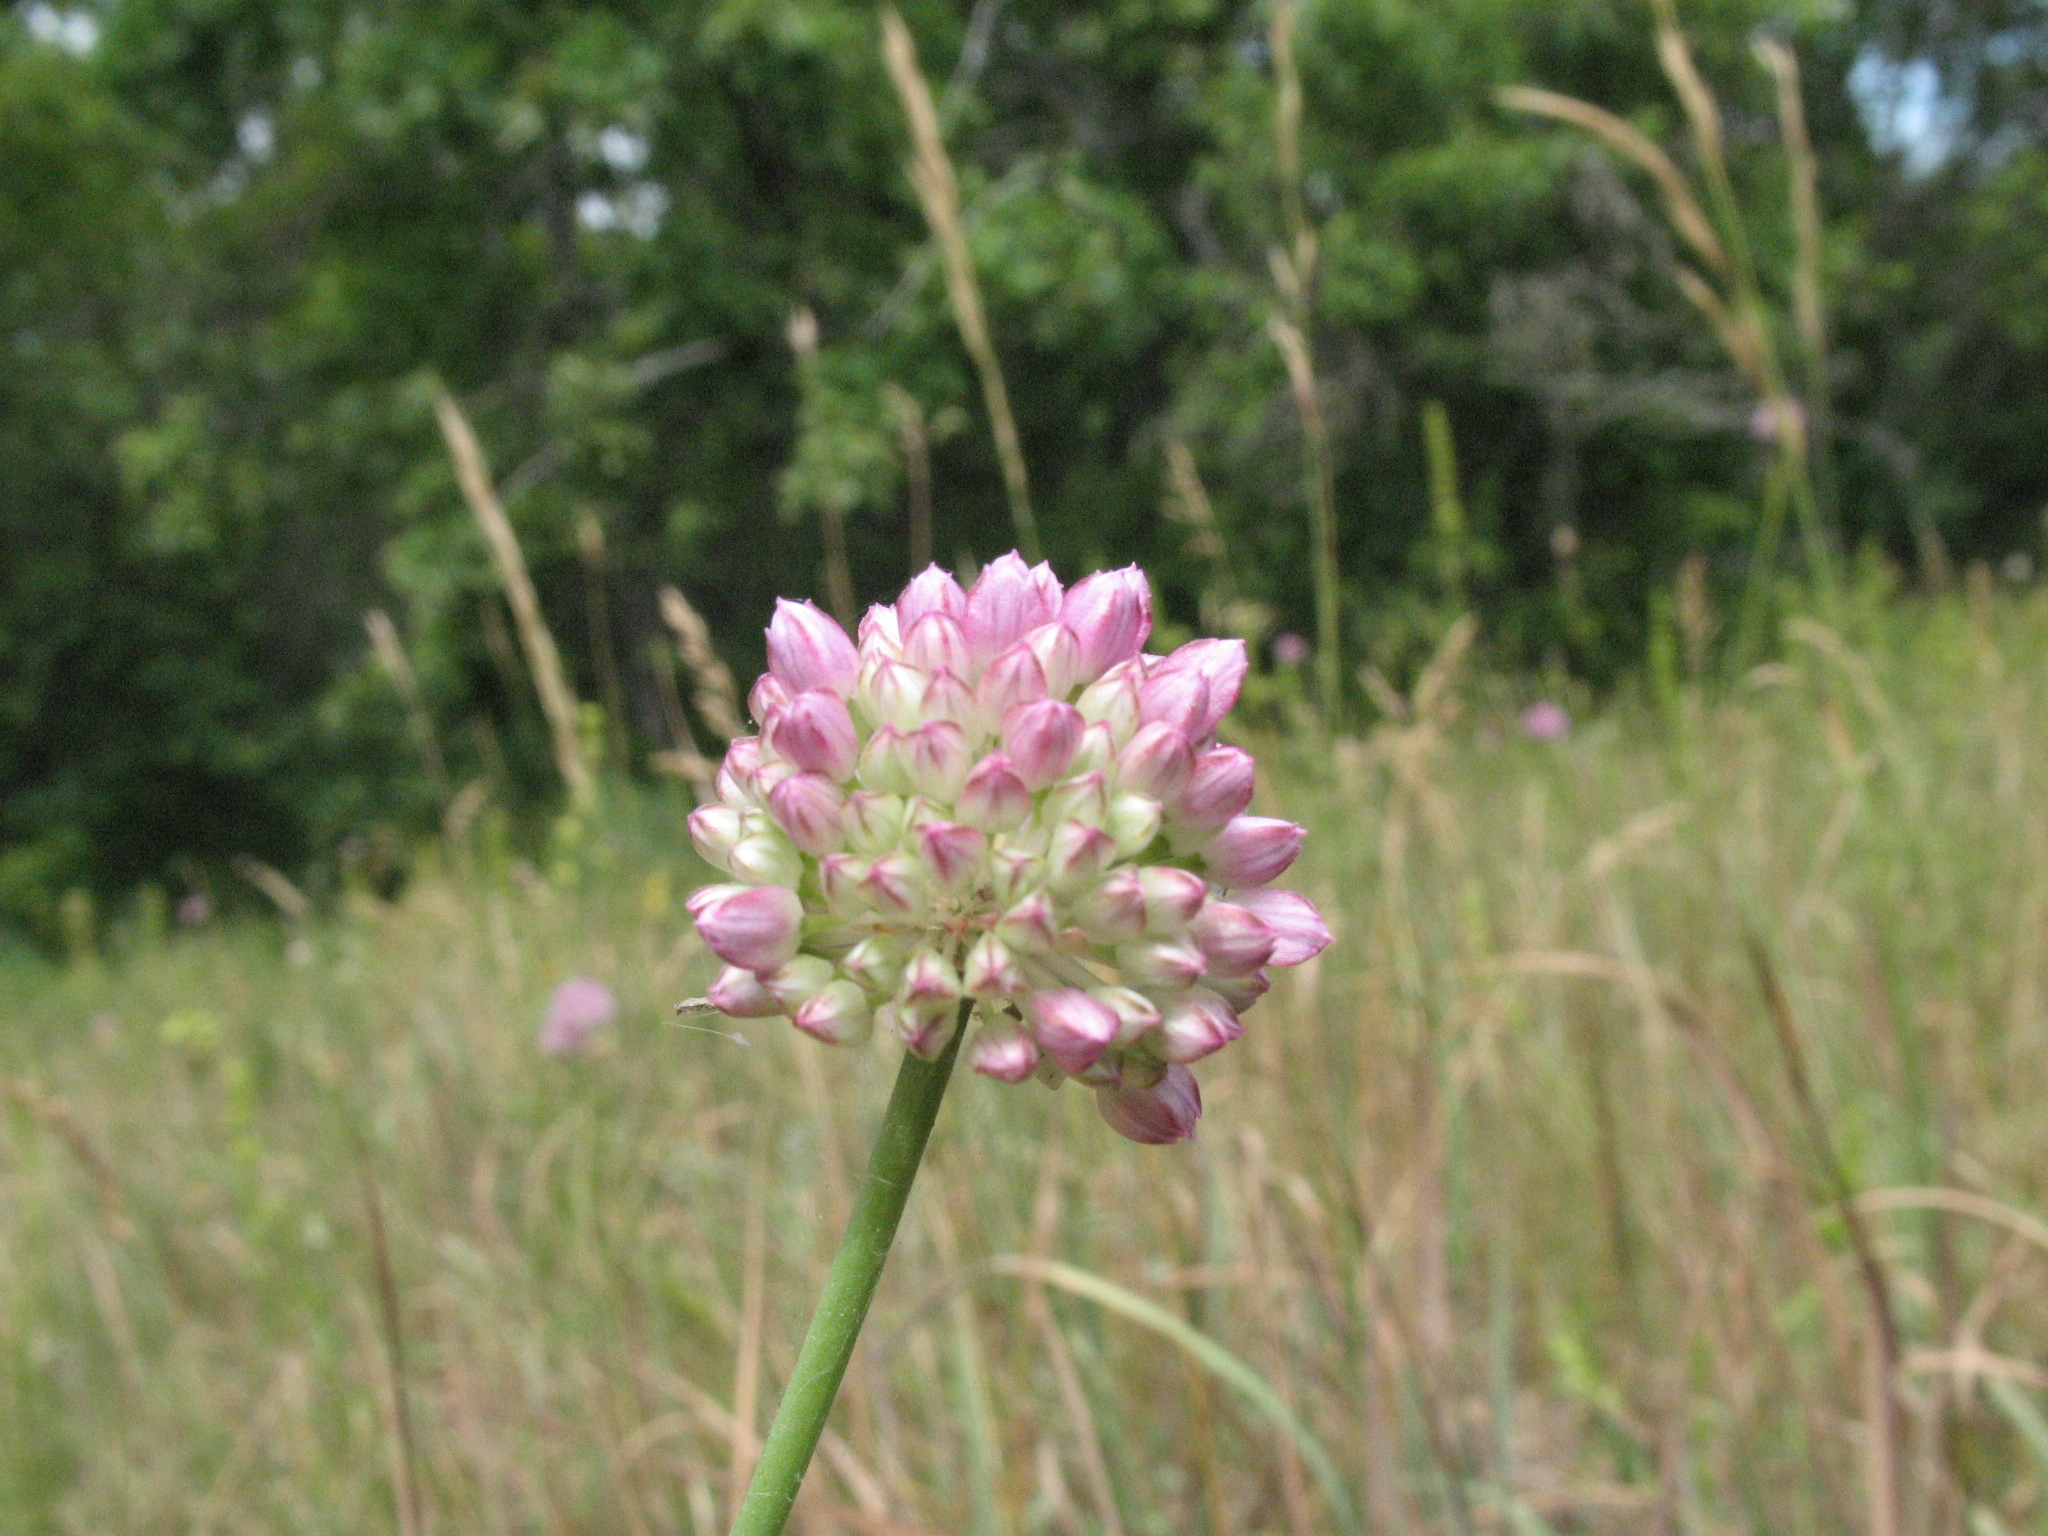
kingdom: Plantae
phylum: Tracheophyta
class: Liliopsida
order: Asparagales
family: Amaryllidaceae
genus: Allium
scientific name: Allium lineare
